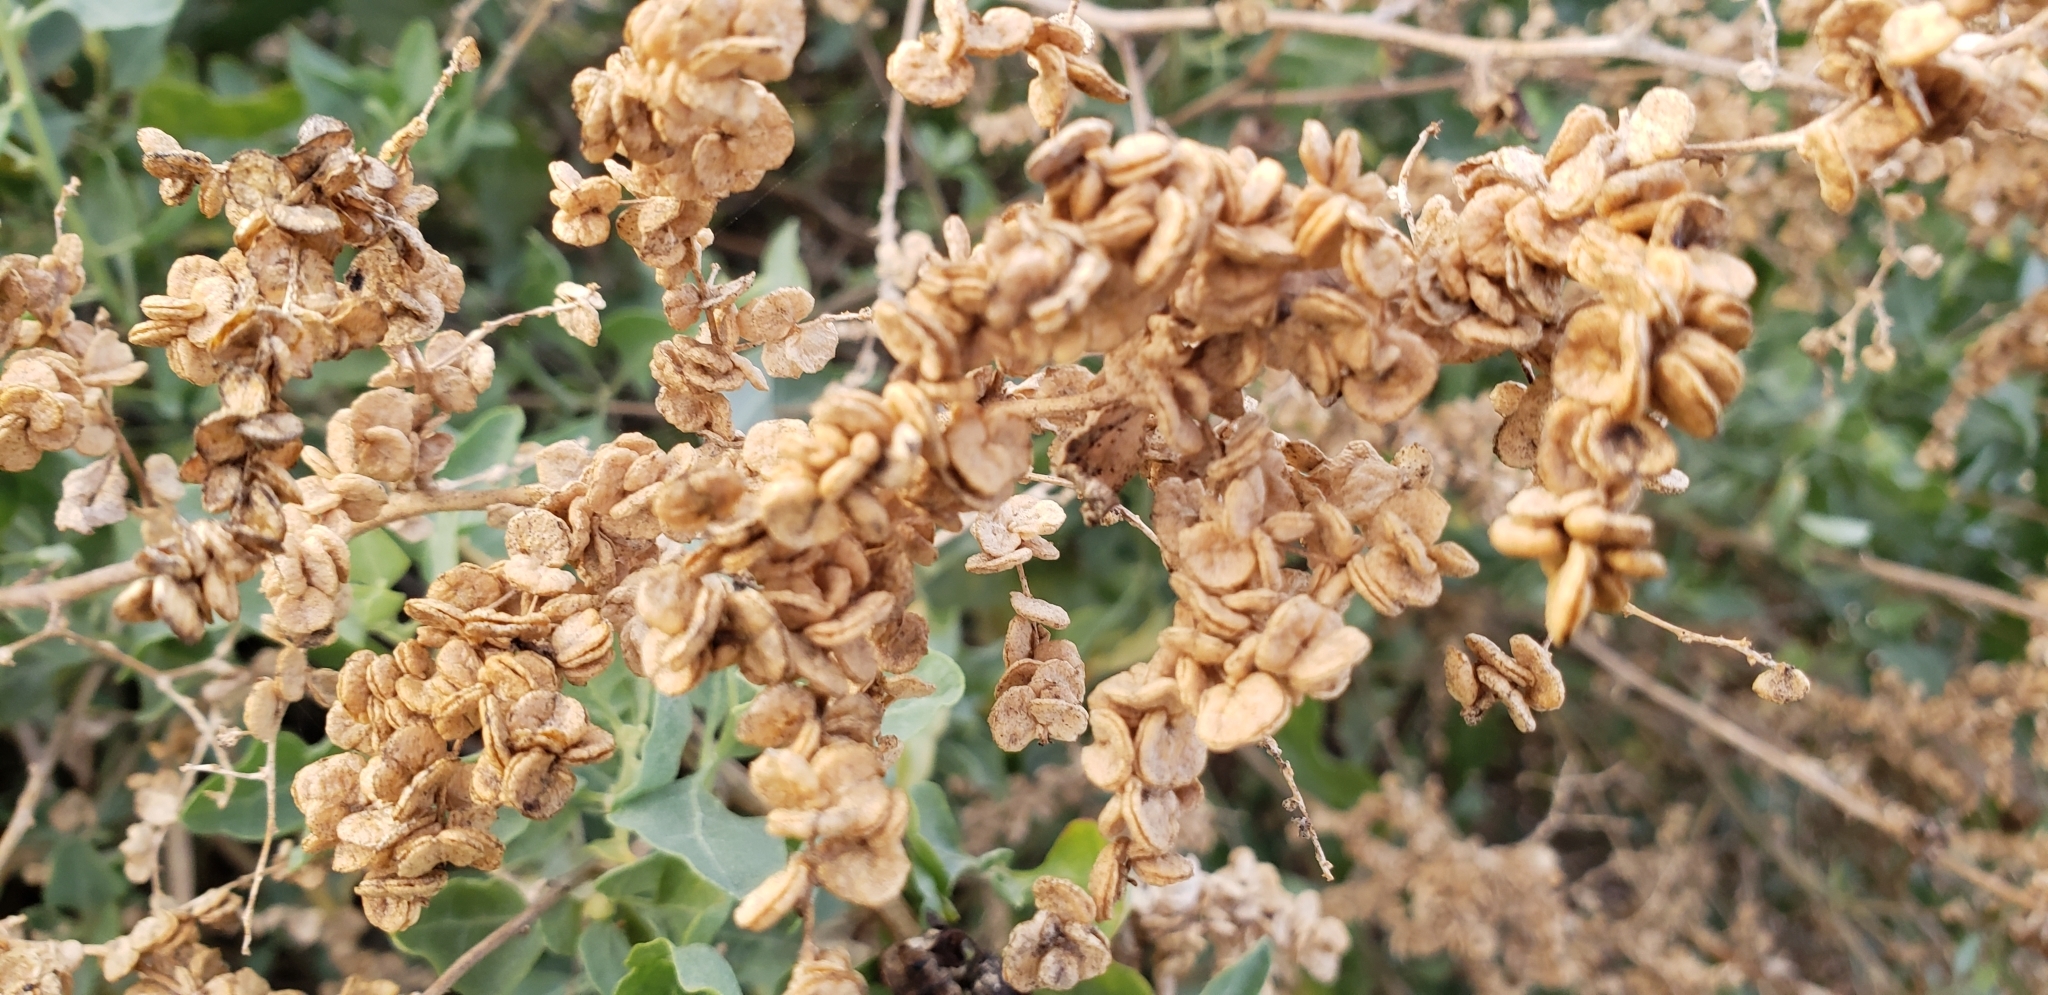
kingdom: Plantae
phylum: Tracheophyta
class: Magnoliopsida
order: Caryophyllales
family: Amaranthaceae
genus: Atriplex
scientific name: Atriplex lentiformis
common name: Big saltbush
